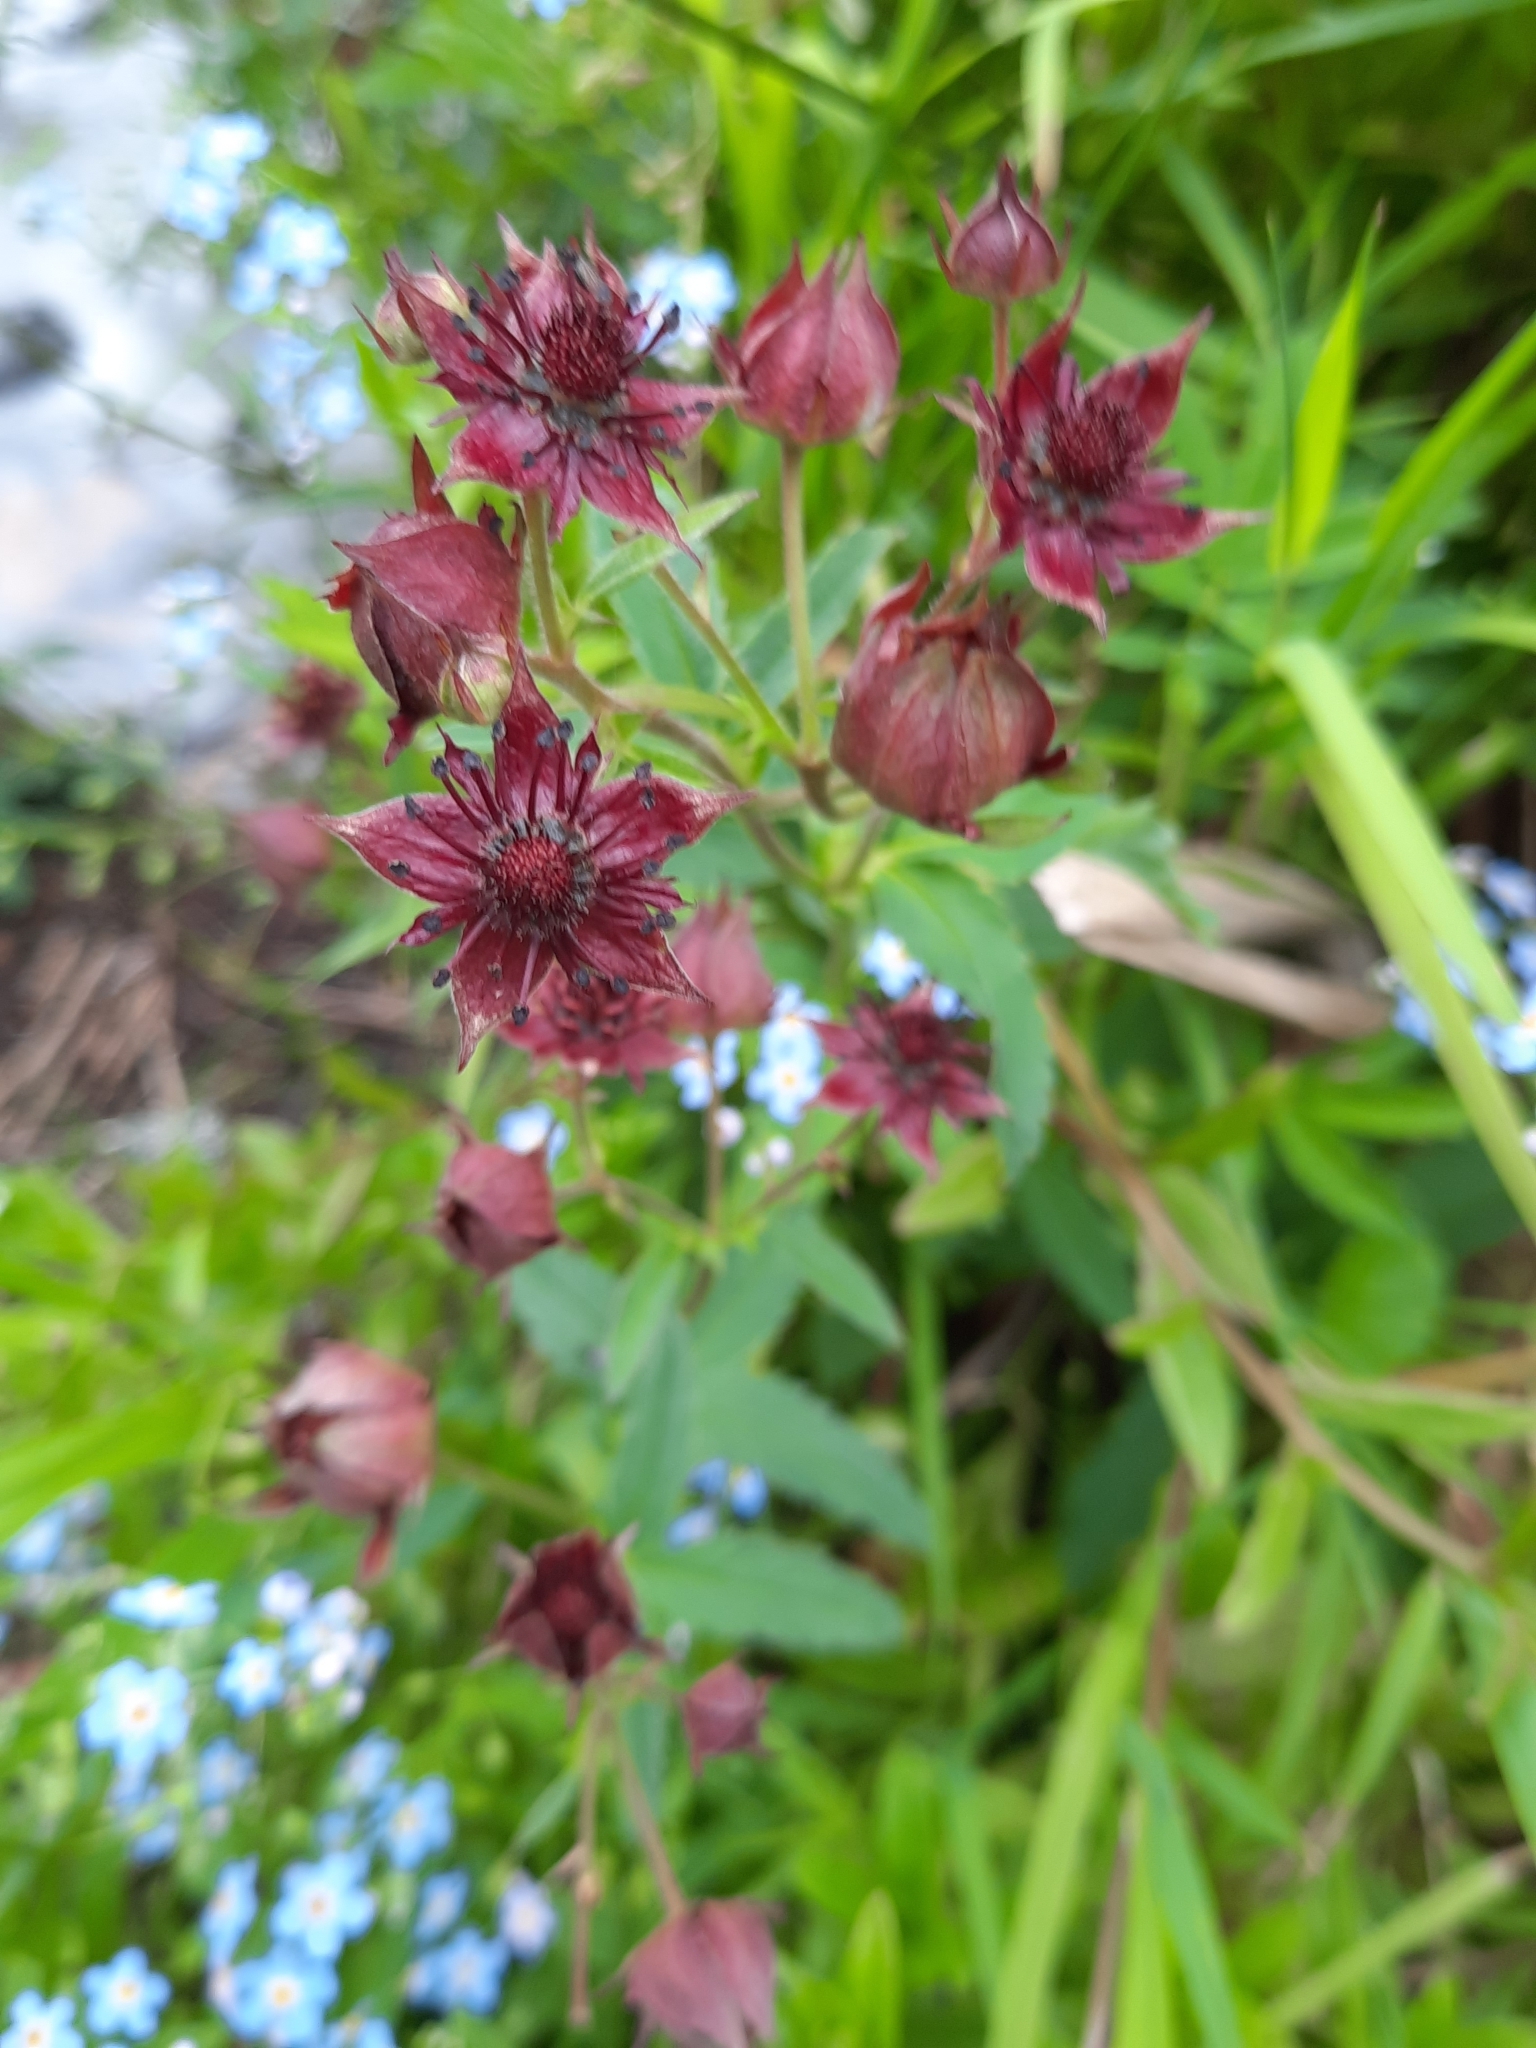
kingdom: Plantae
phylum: Tracheophyta
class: Magnoliopsida
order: Rosales
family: Rosaceae
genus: Comarum
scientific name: Comarum palustre
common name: Marsh cinquefoil
